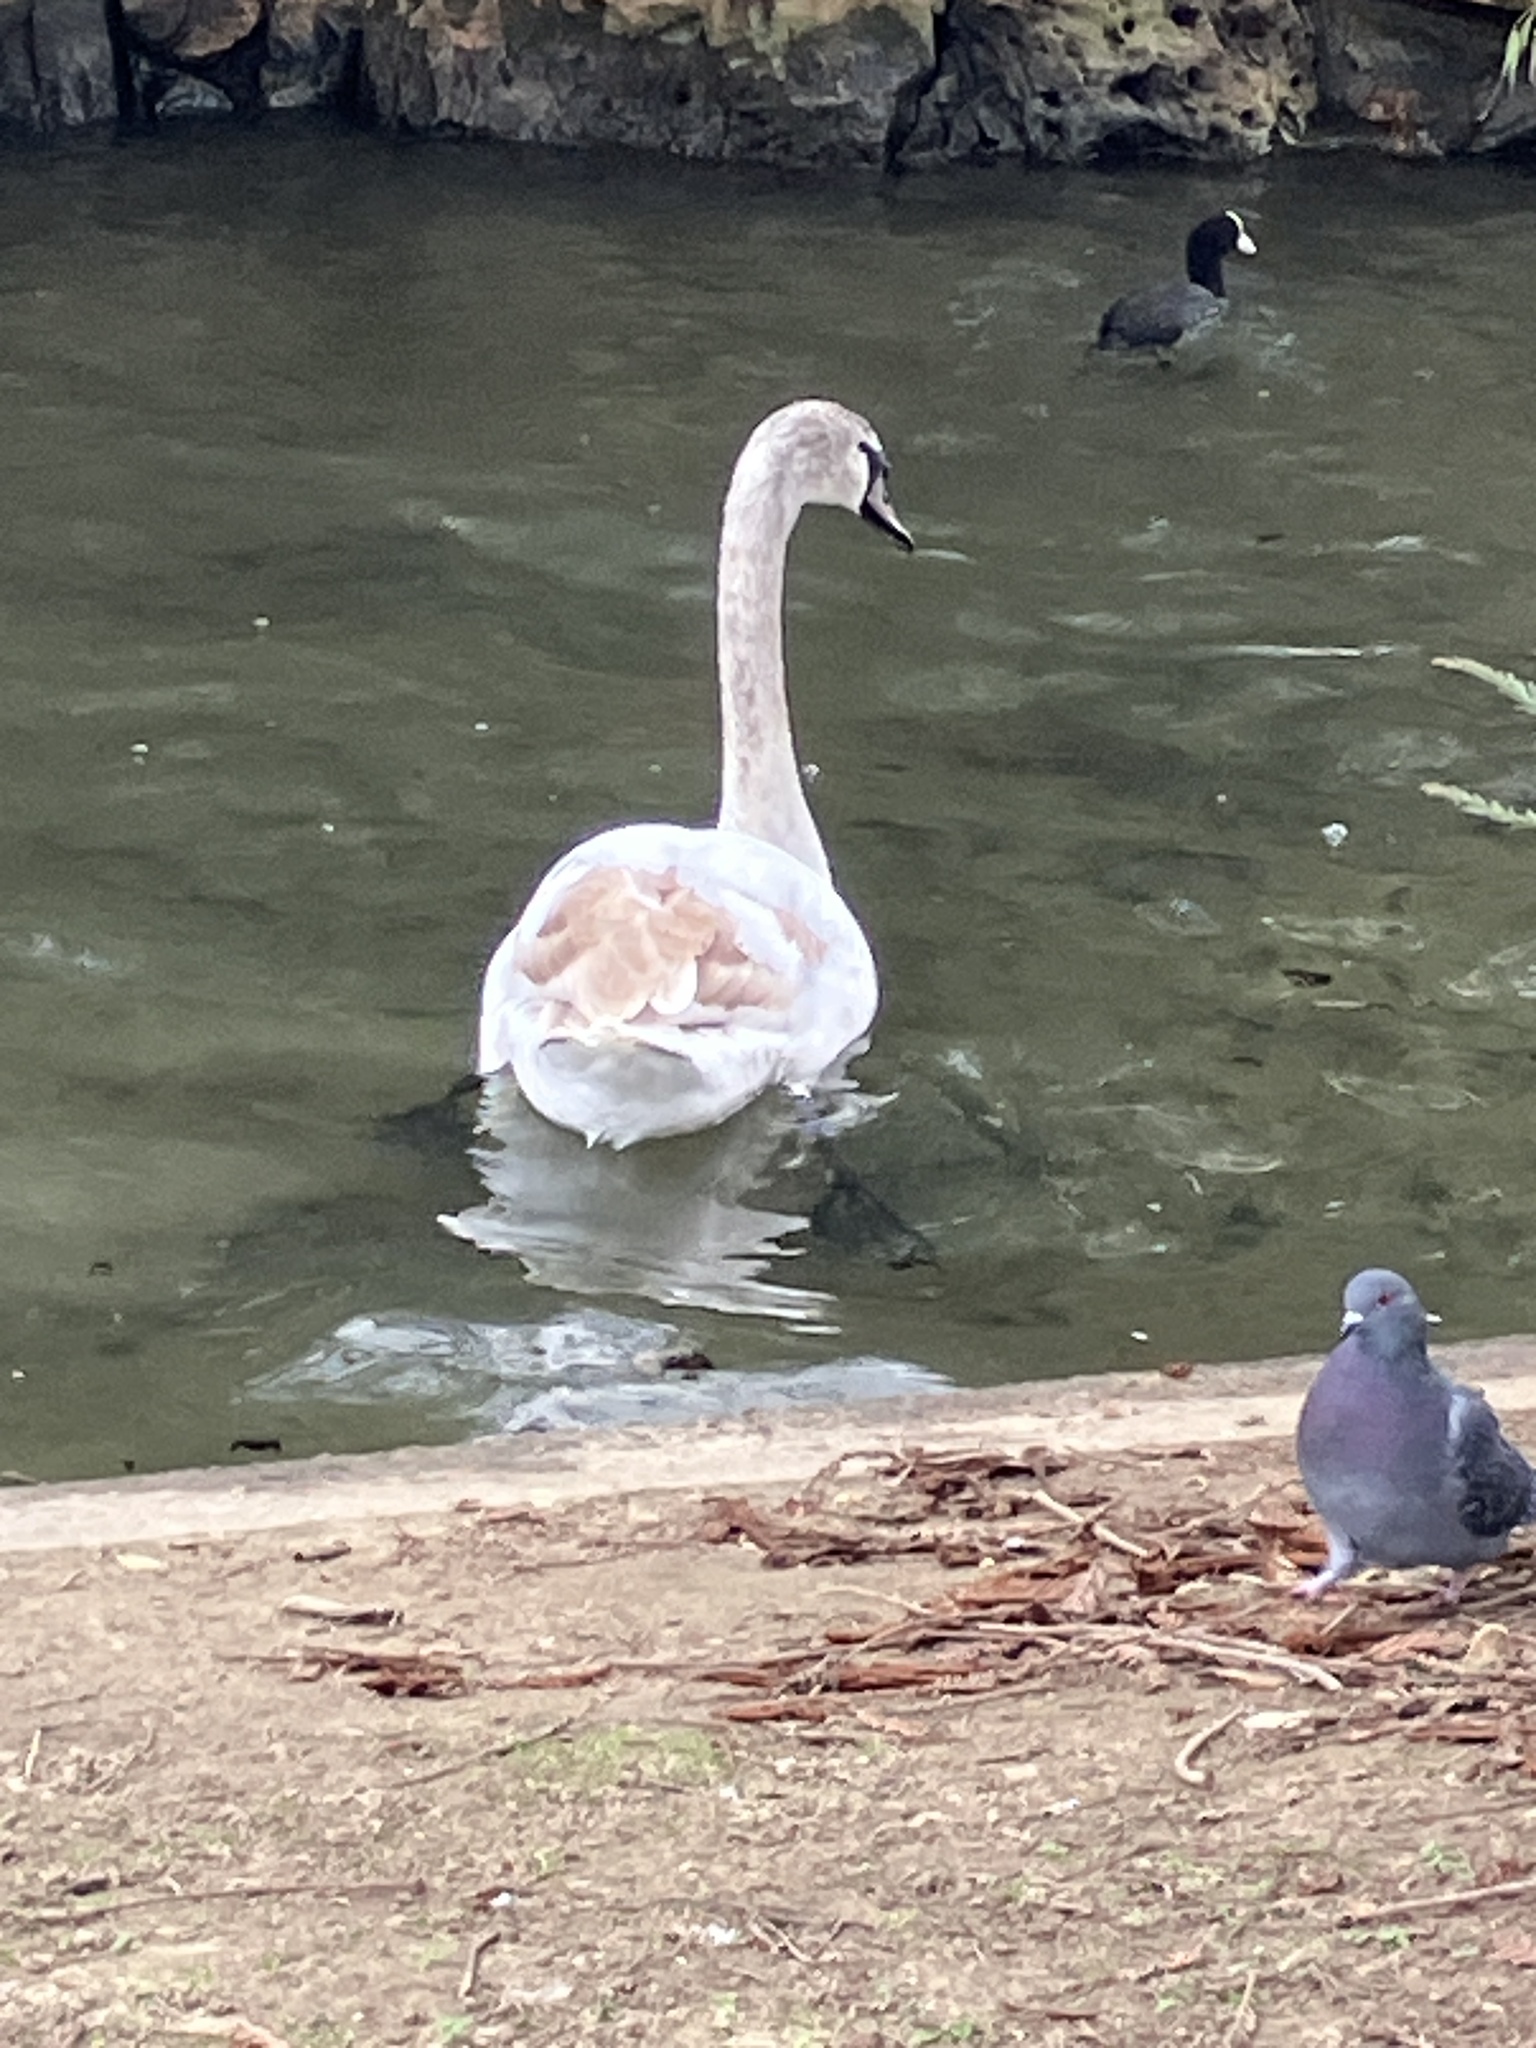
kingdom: Animalia
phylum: Chordata
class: Aves
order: Anseriformes
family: Anatidae
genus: Cygnus
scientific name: Cygnus olor
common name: Mute swan
